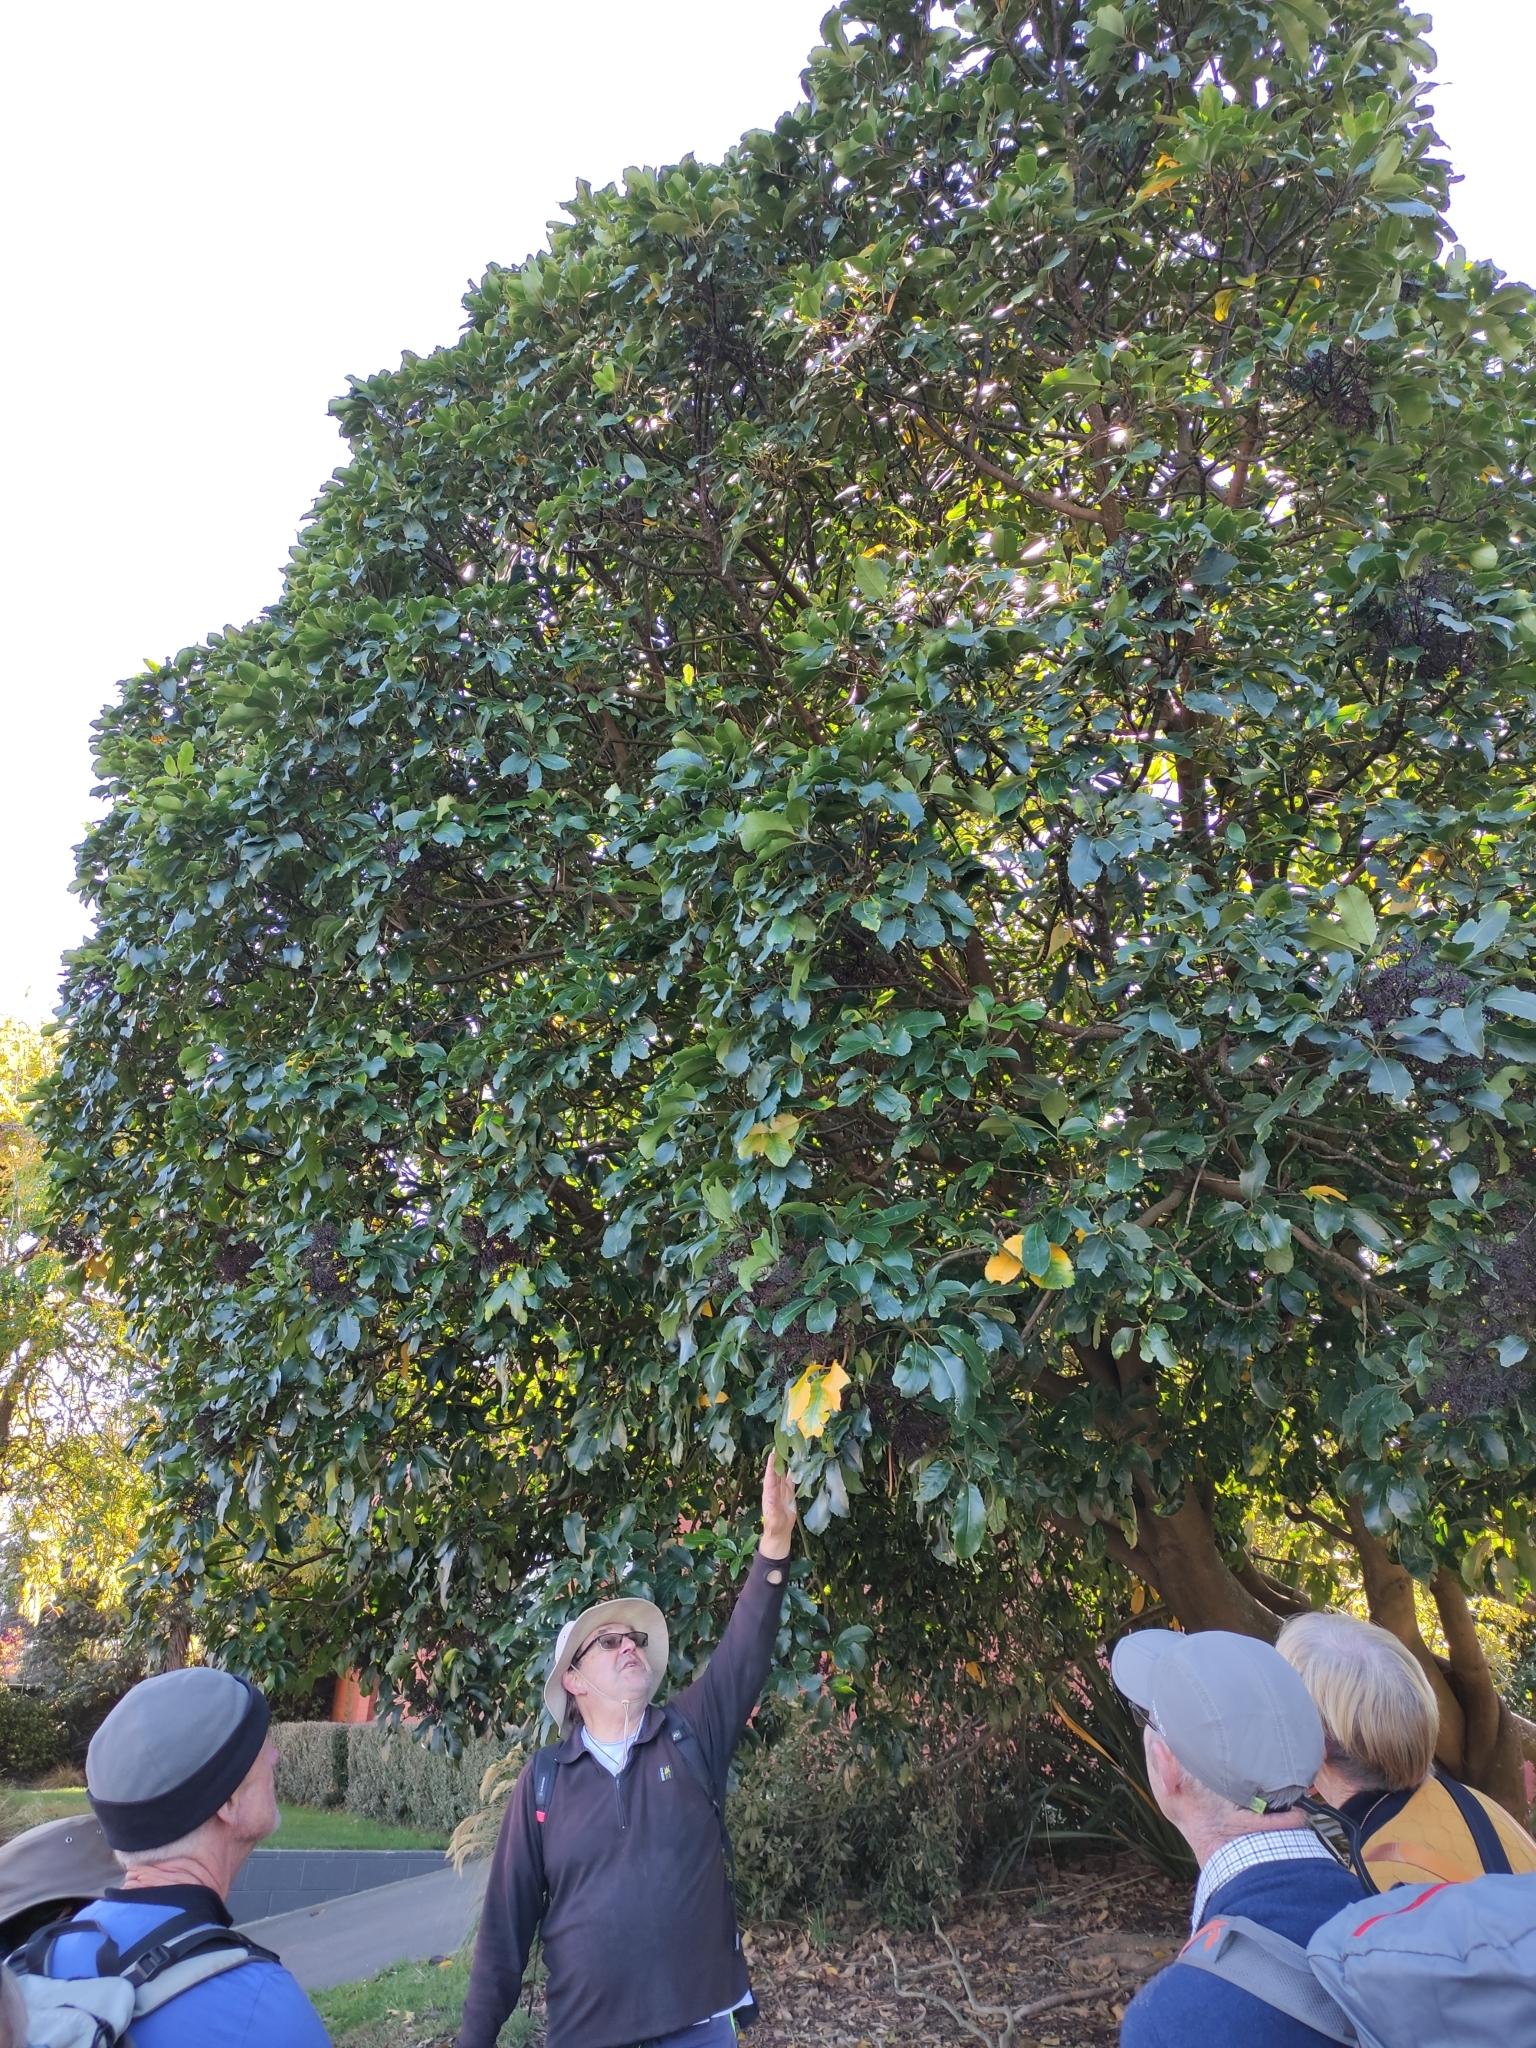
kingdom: Plantae
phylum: Tracheophyta
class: Magnoliopsida
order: Apiales
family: Araliaceae
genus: Neopanax
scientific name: Neopanax arboreus
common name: Five-fingers
